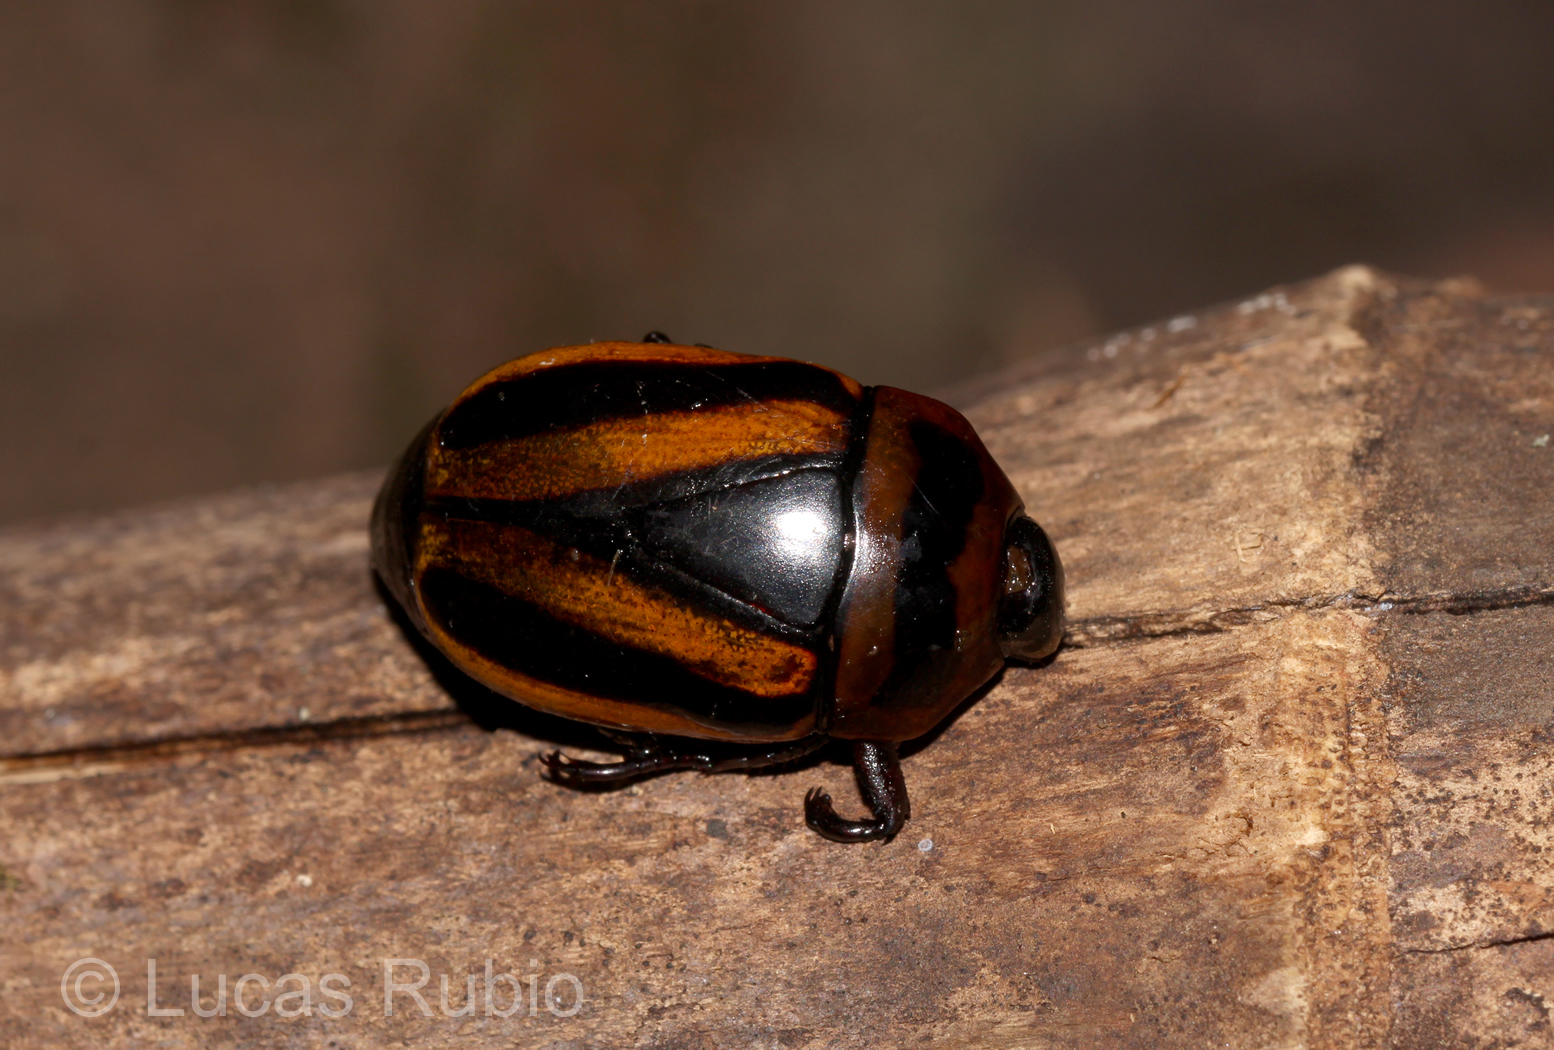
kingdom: Animalia
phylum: Arthropoda
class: Insecta
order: Coleoptera
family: Scarabaeidae
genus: Macraspis
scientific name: Macraspis cincta
